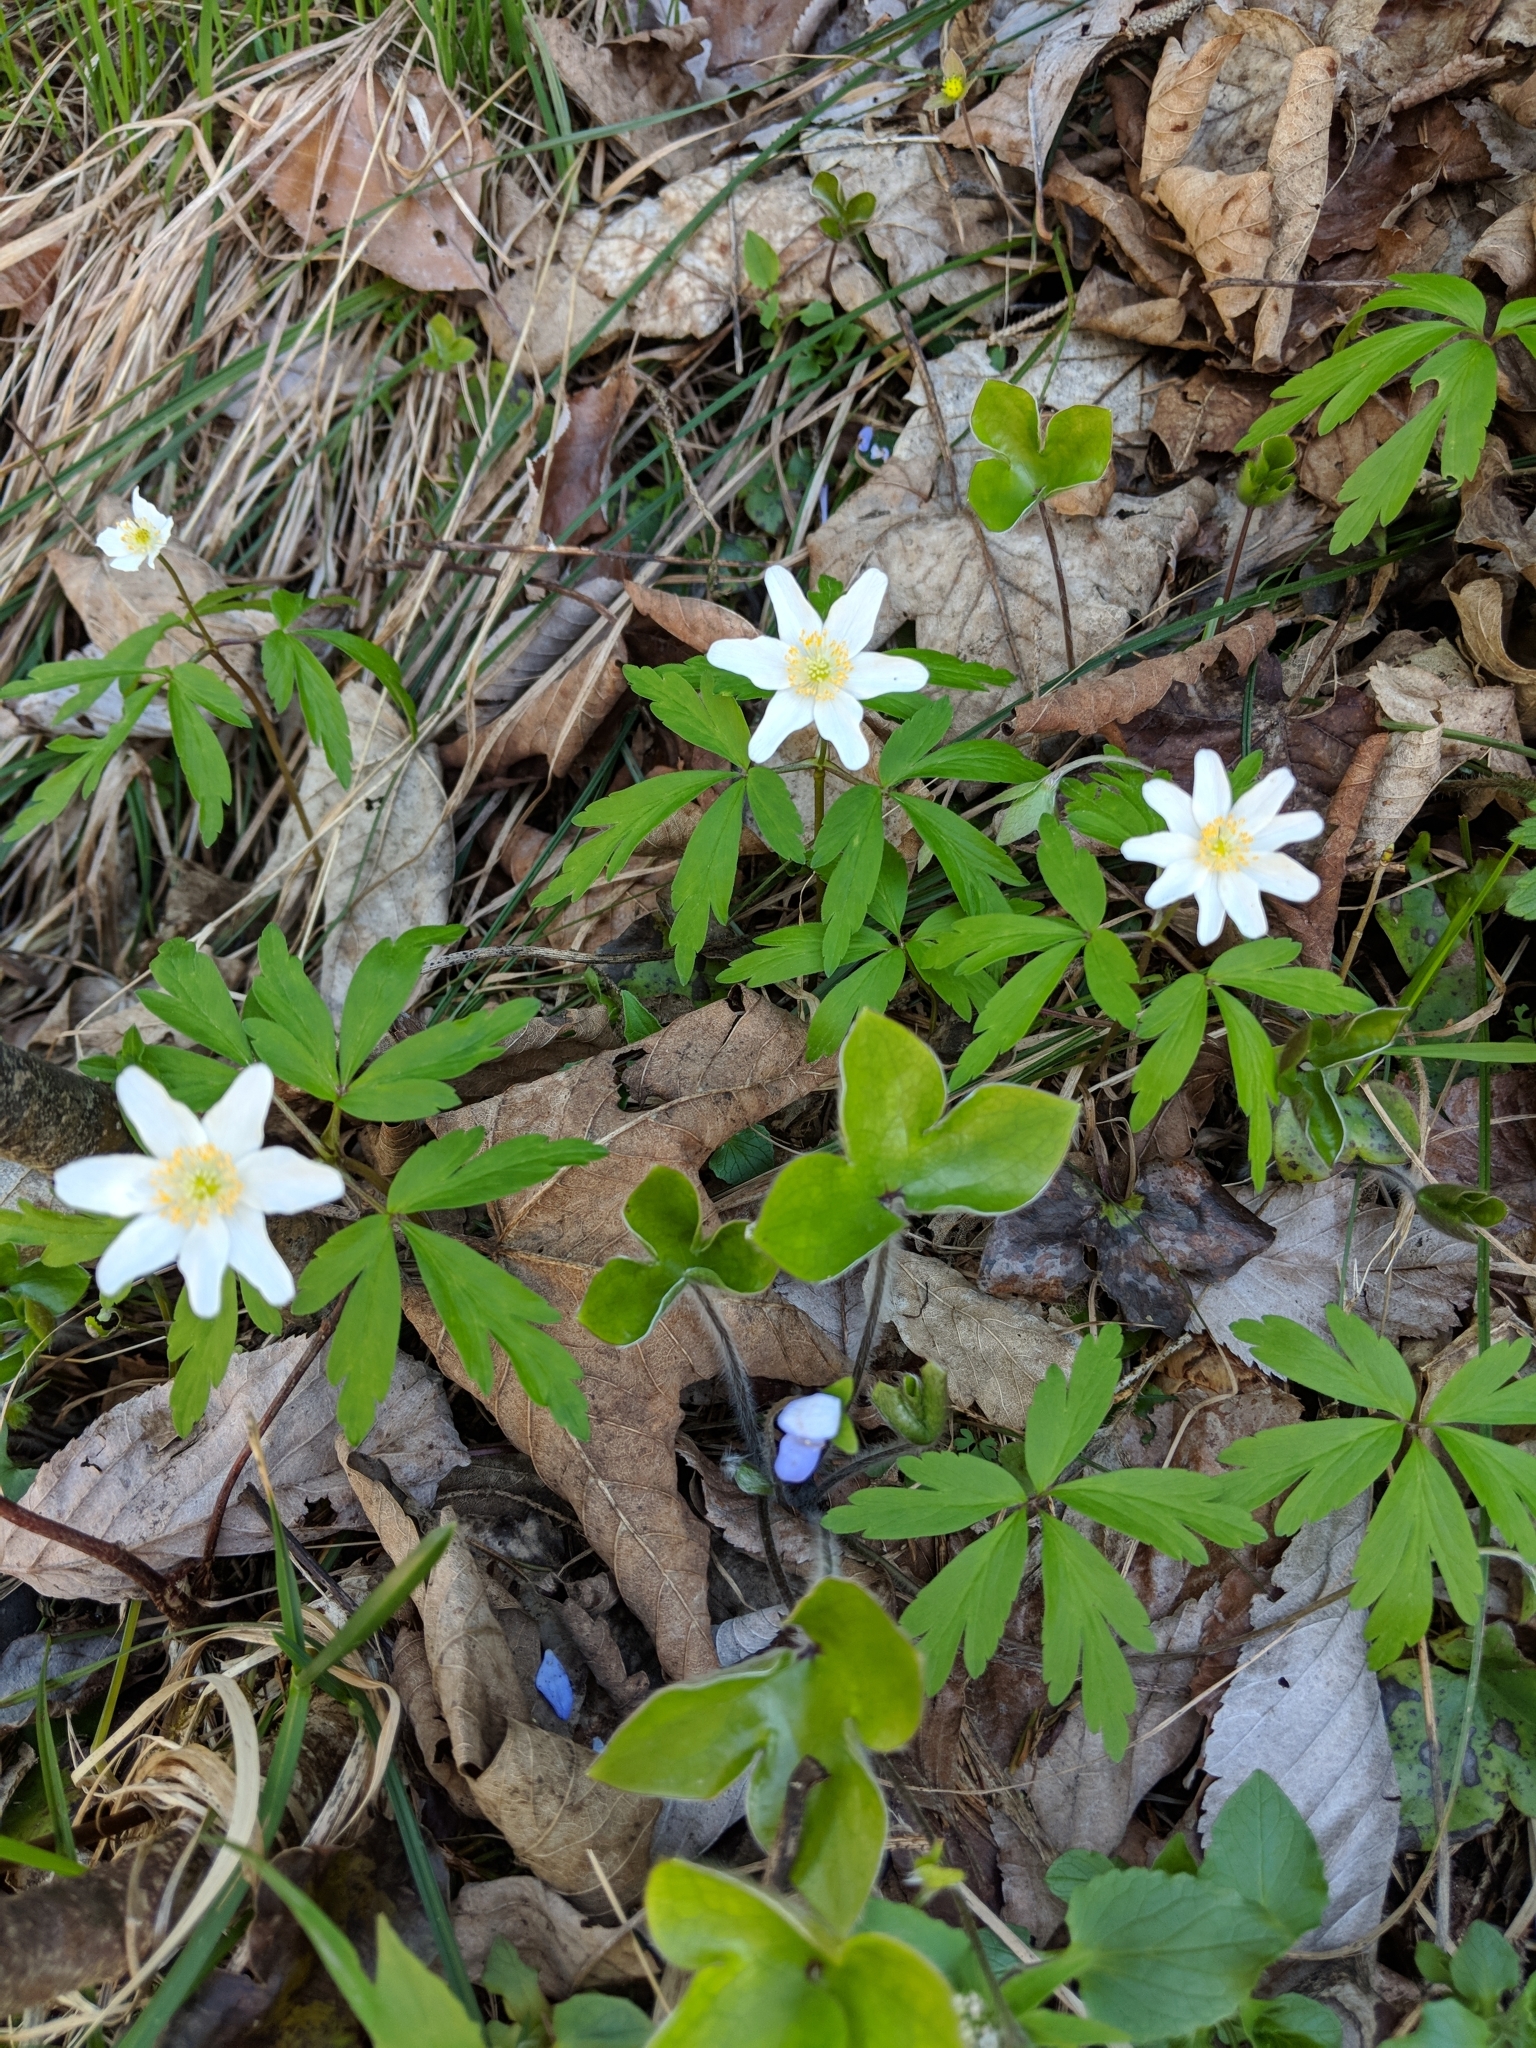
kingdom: Plantae
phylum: Tracheophyta
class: Magnoliopsida
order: Ranunculales
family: Ranunculaceae
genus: Anemone
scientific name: Anemone nemorosa
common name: Wood anemone
